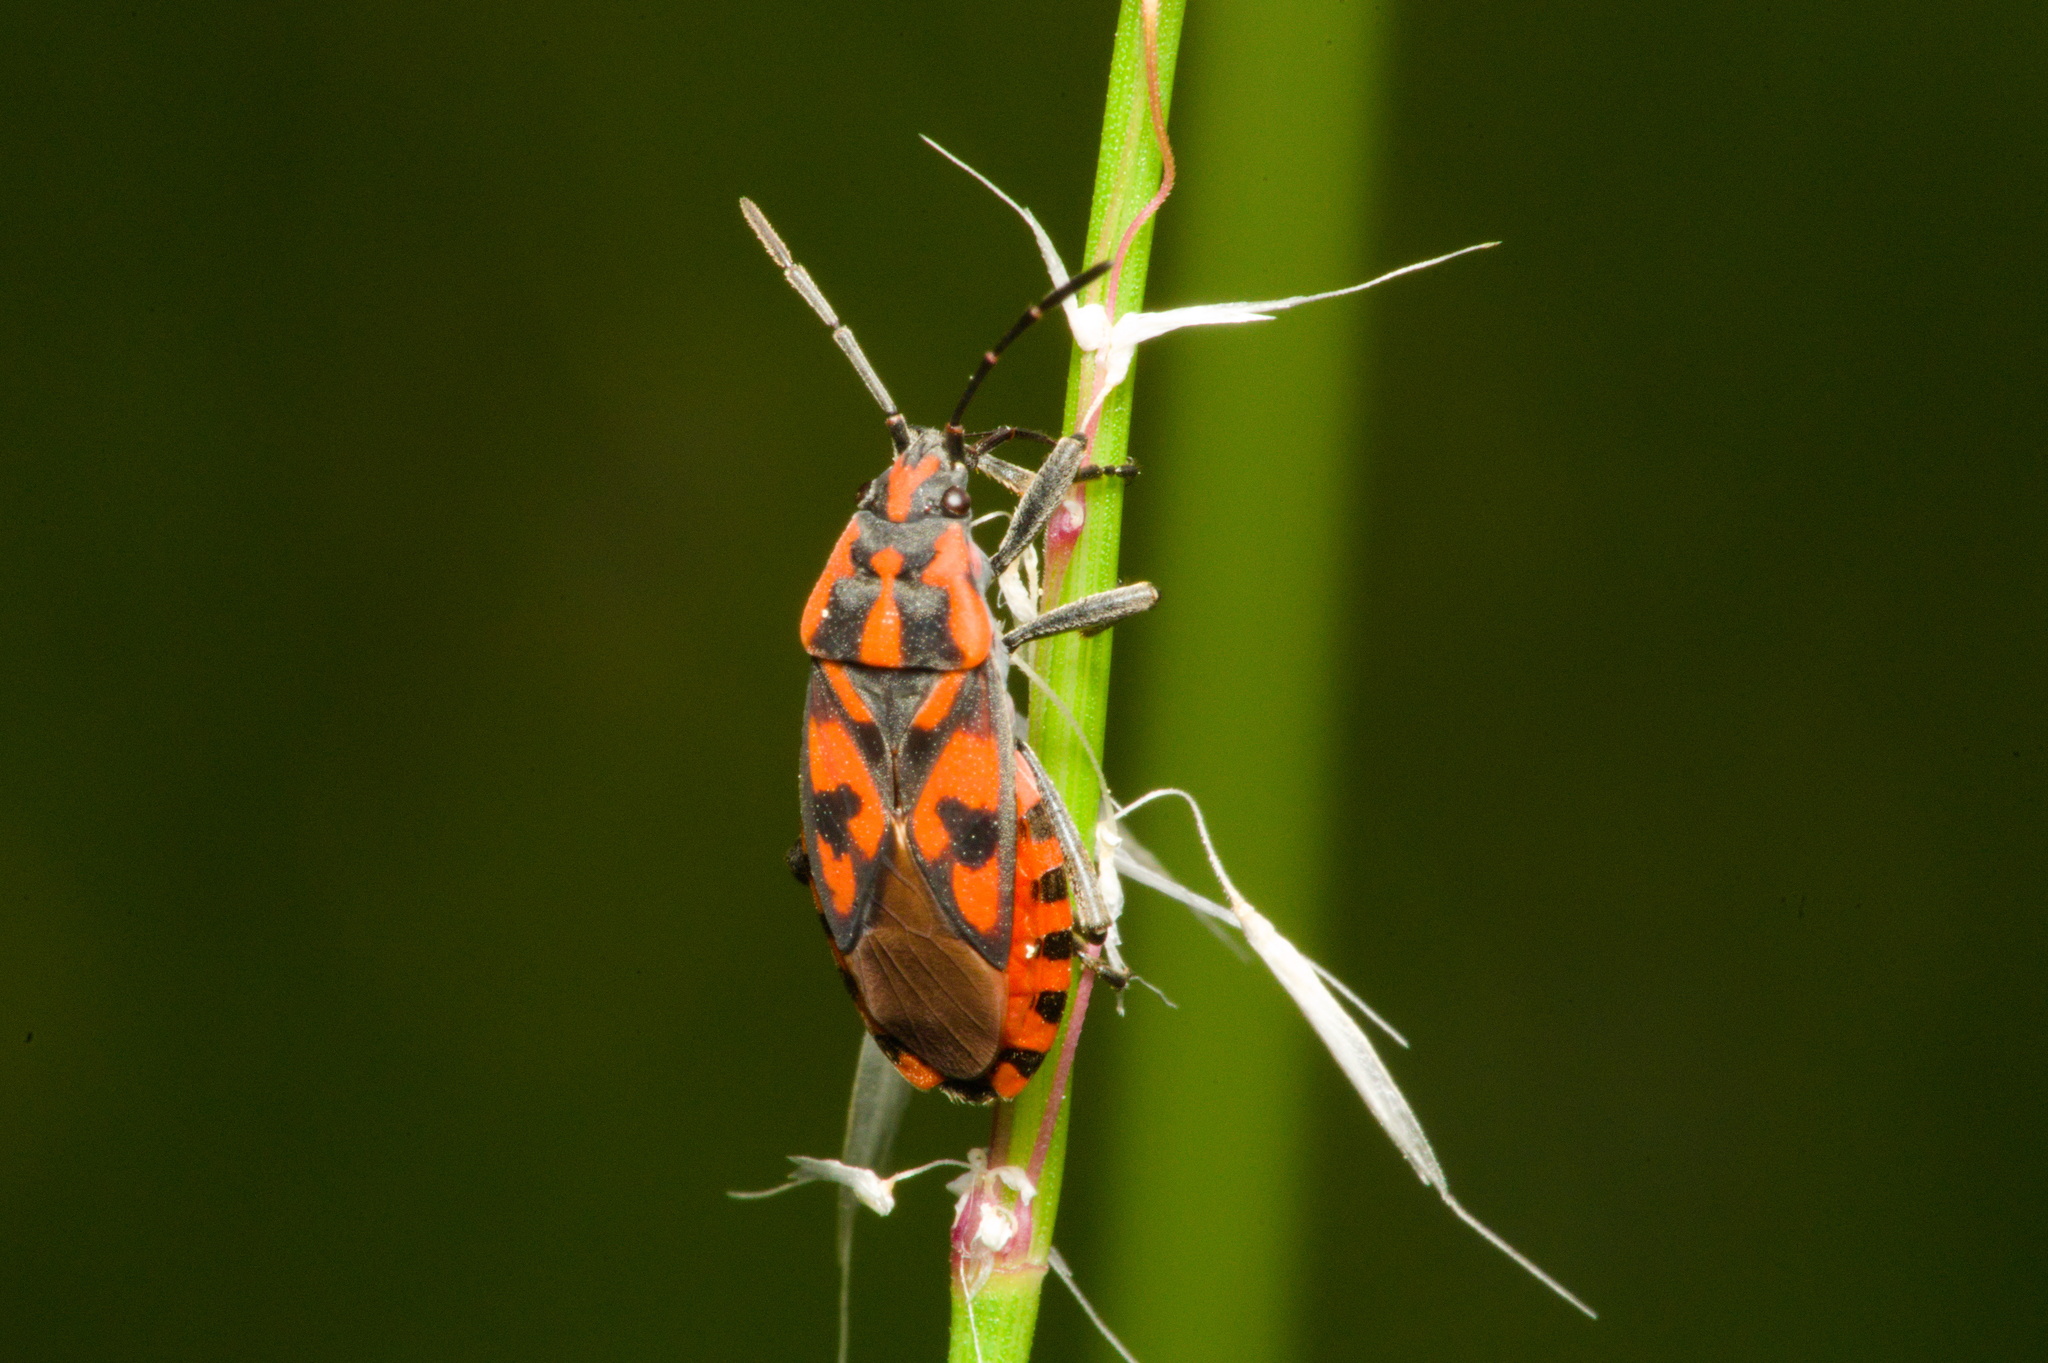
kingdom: Animalia
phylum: Arthropoda
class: Insecta
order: Hemiptera
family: Lygaeidae
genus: Spilostethus
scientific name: Spilostethus saxatilis
